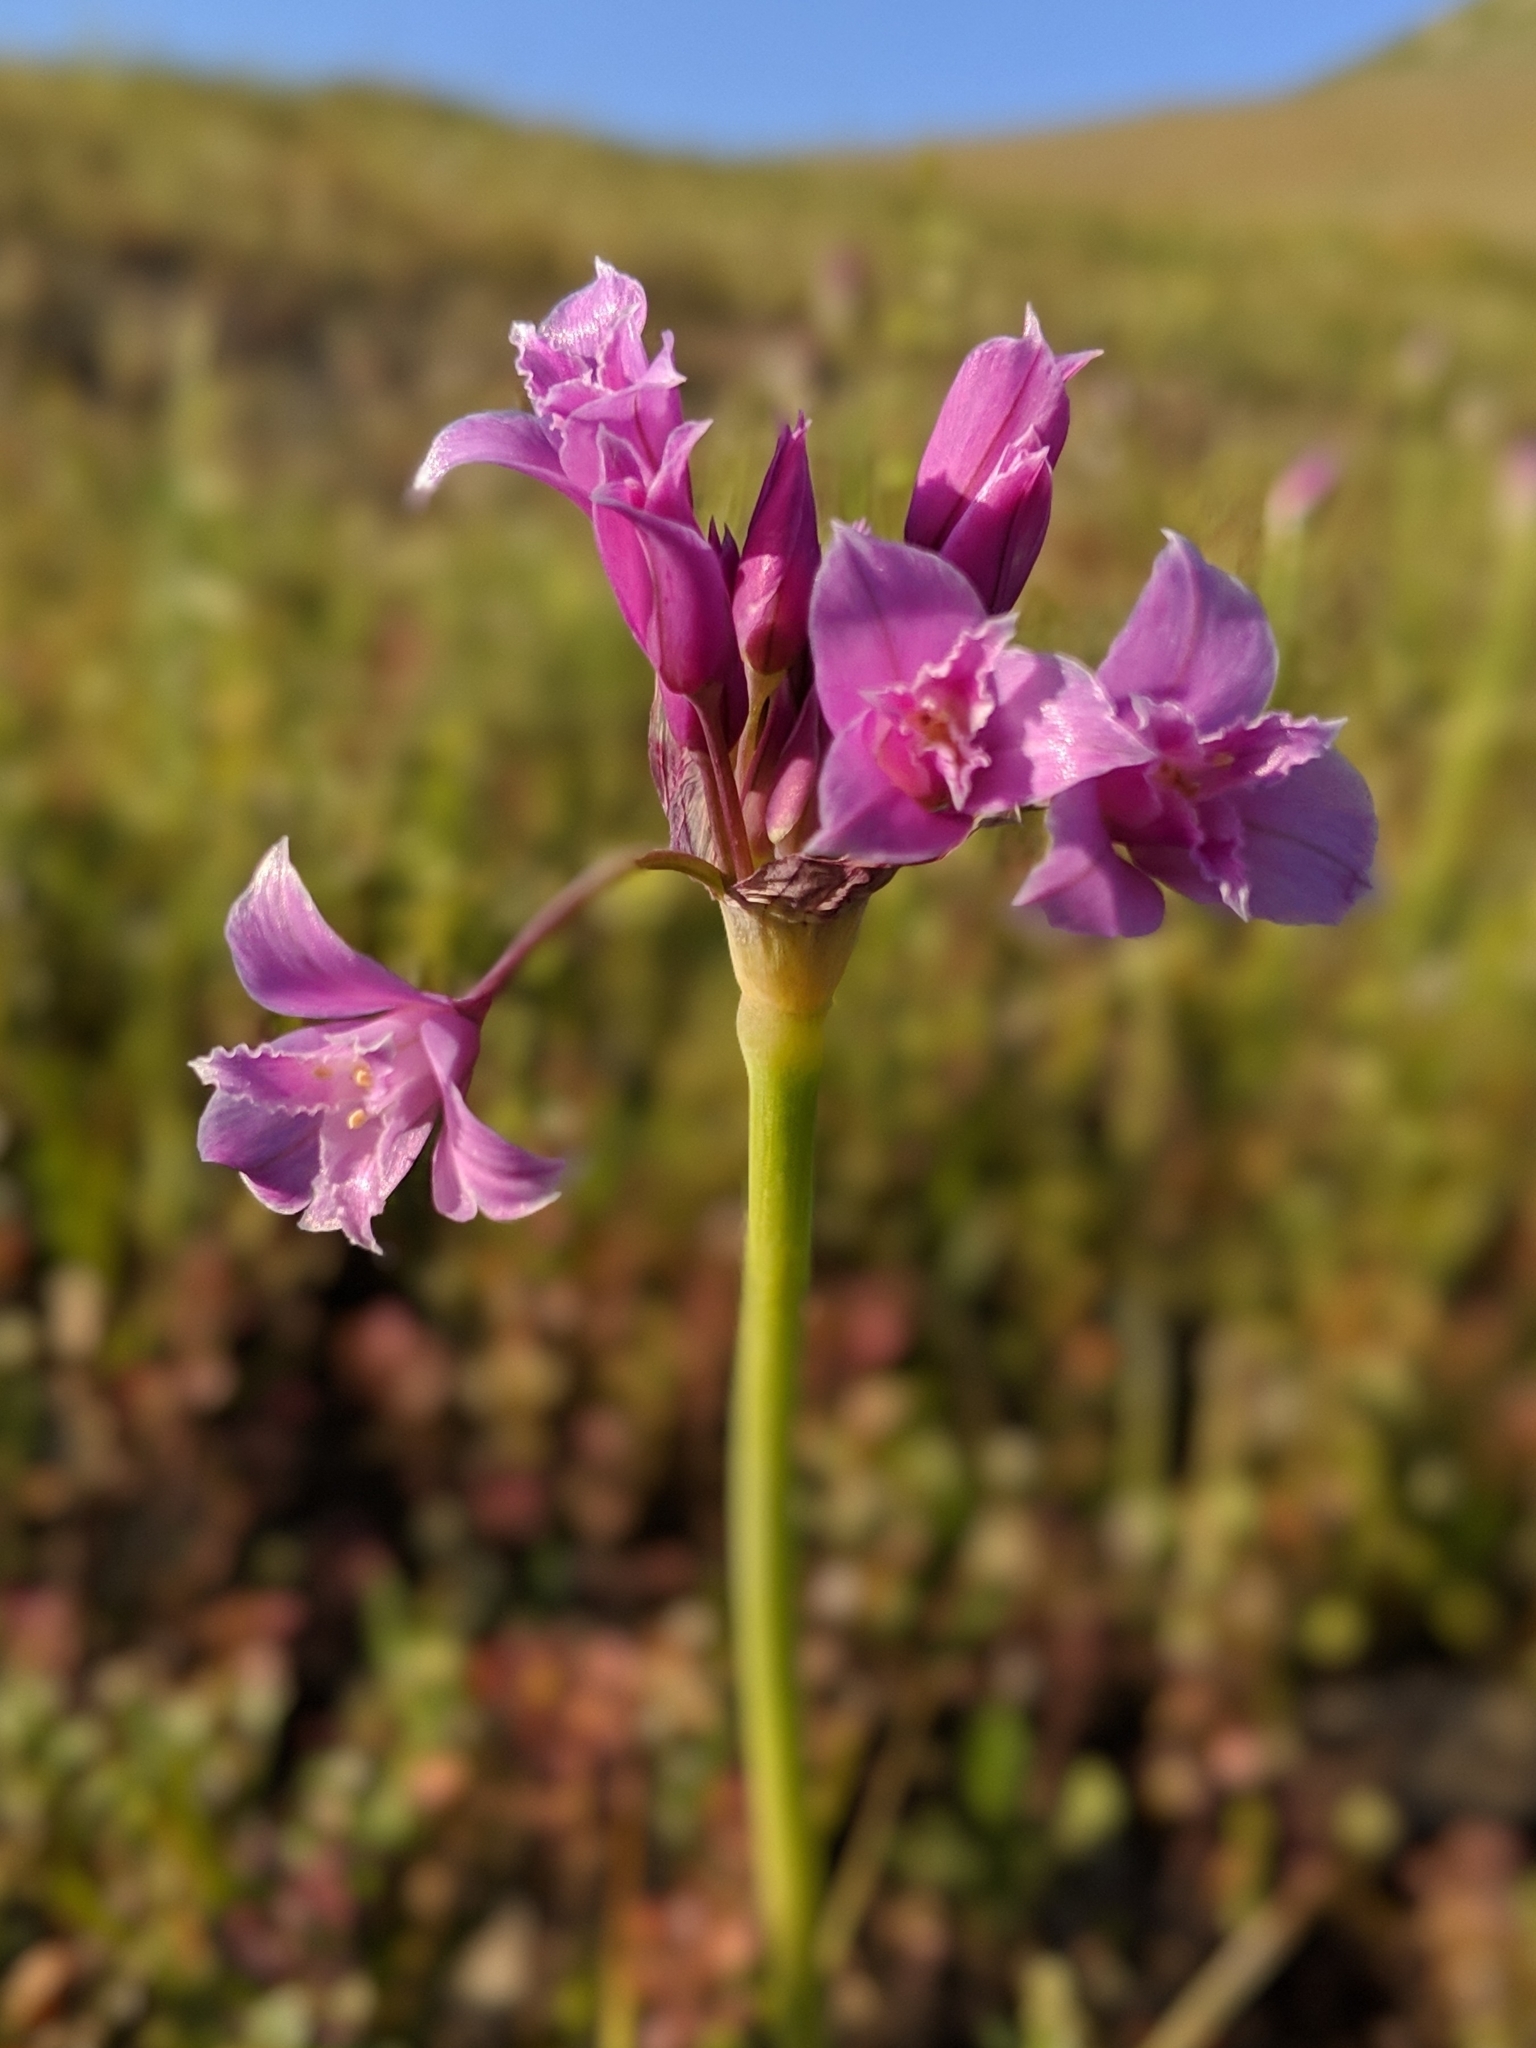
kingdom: Plantae
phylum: Tracheophyta
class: Liliopsida
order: Asparagales
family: Amaryllidaceae
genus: Allium
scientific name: Allium crispum
